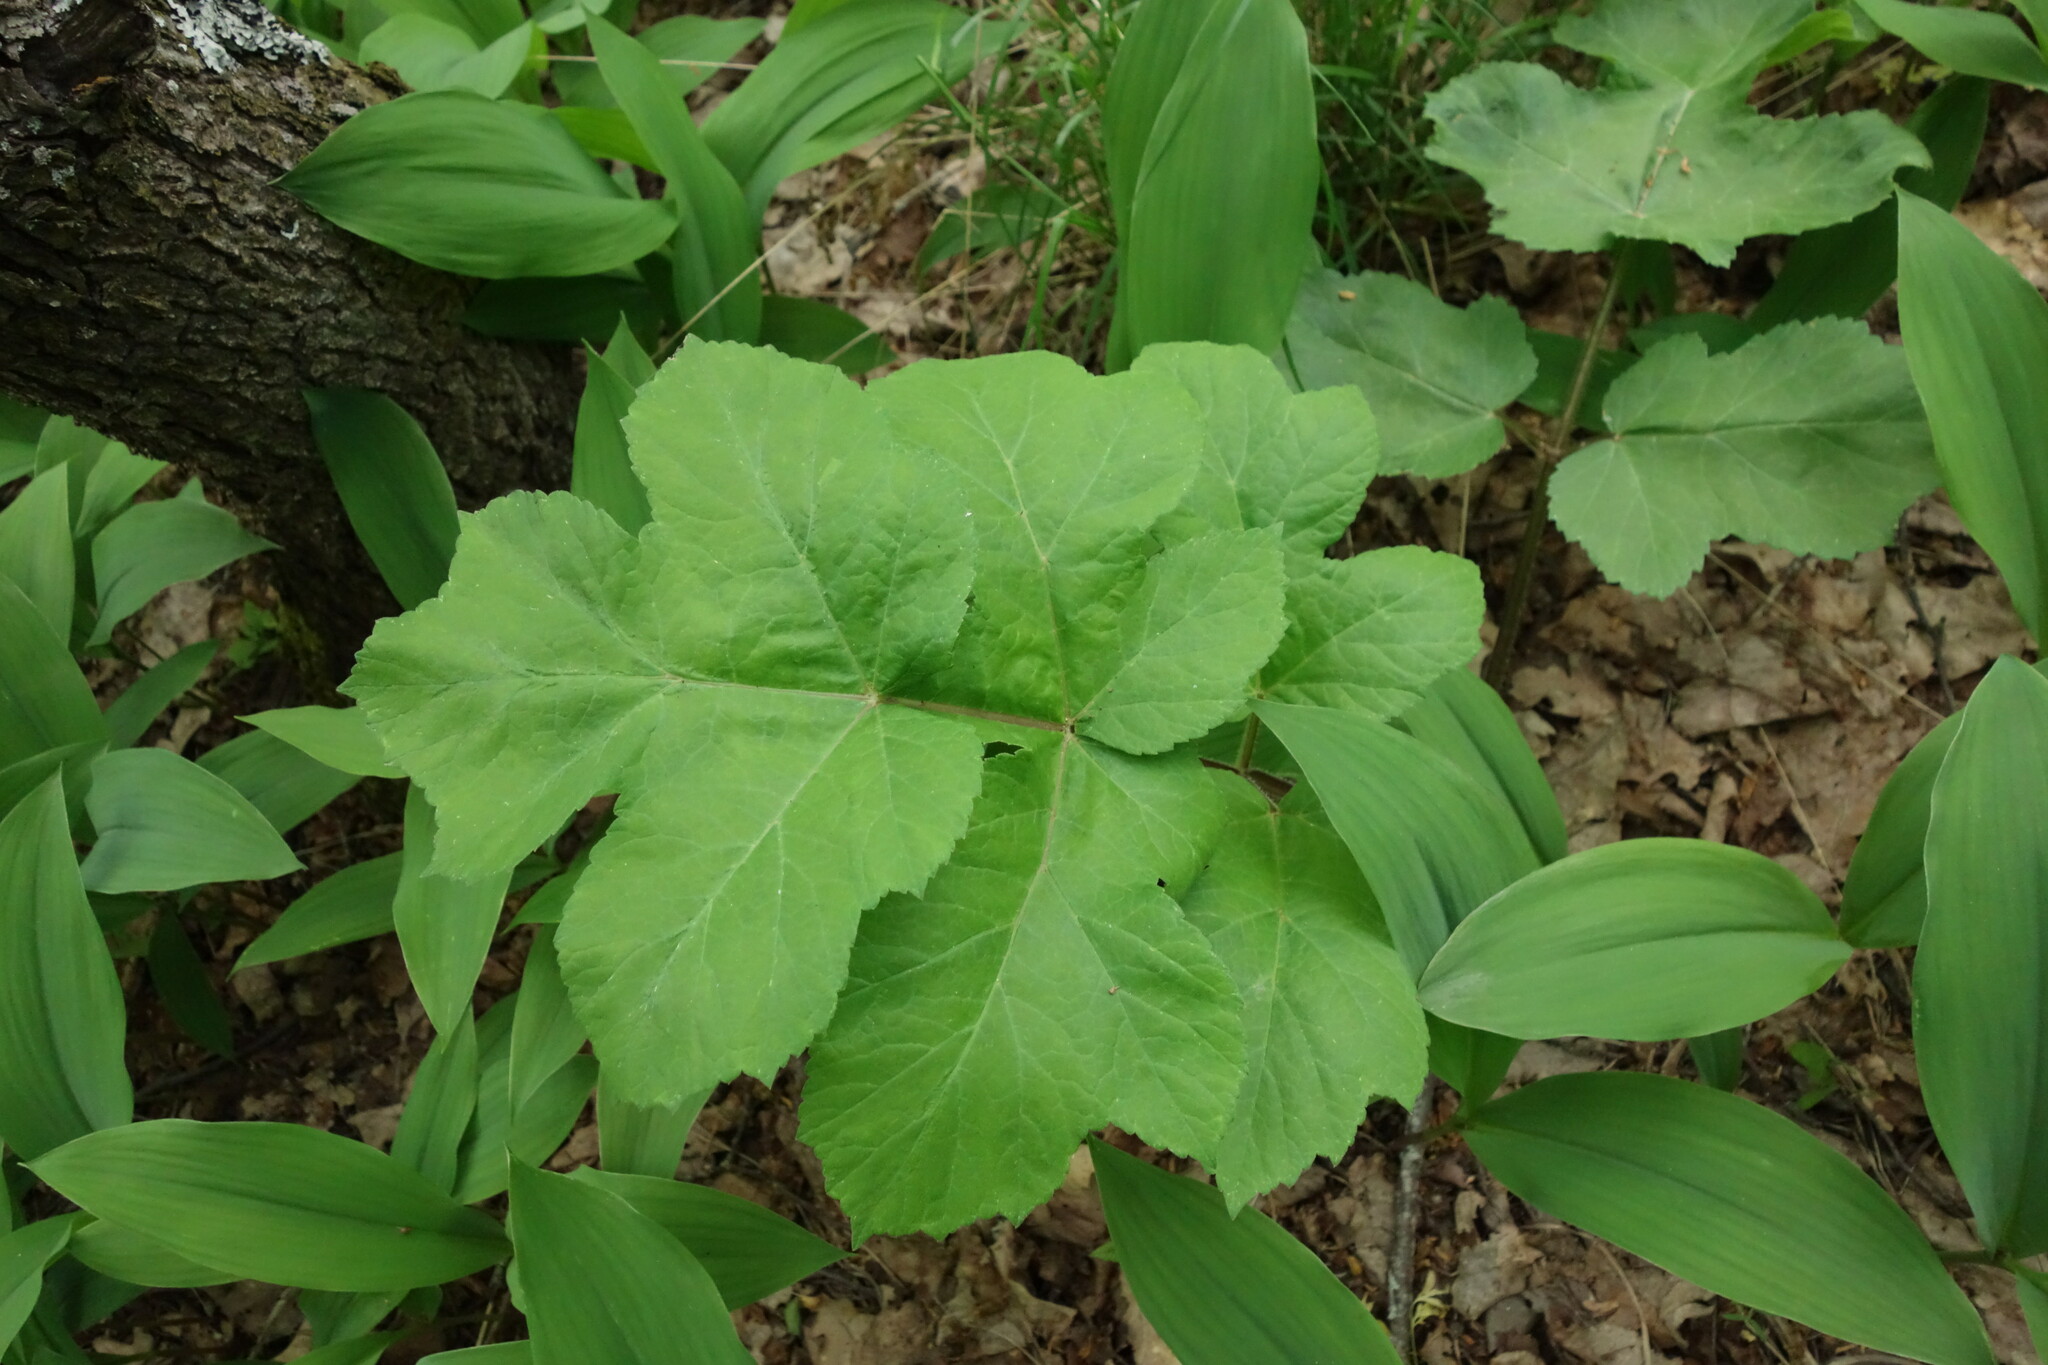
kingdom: Plantae
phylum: Tracheophyta
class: Magnoliopsida
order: Apiales
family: Apiaceae
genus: Heracleum
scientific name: Heracleum sphondylium
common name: Hogweed
